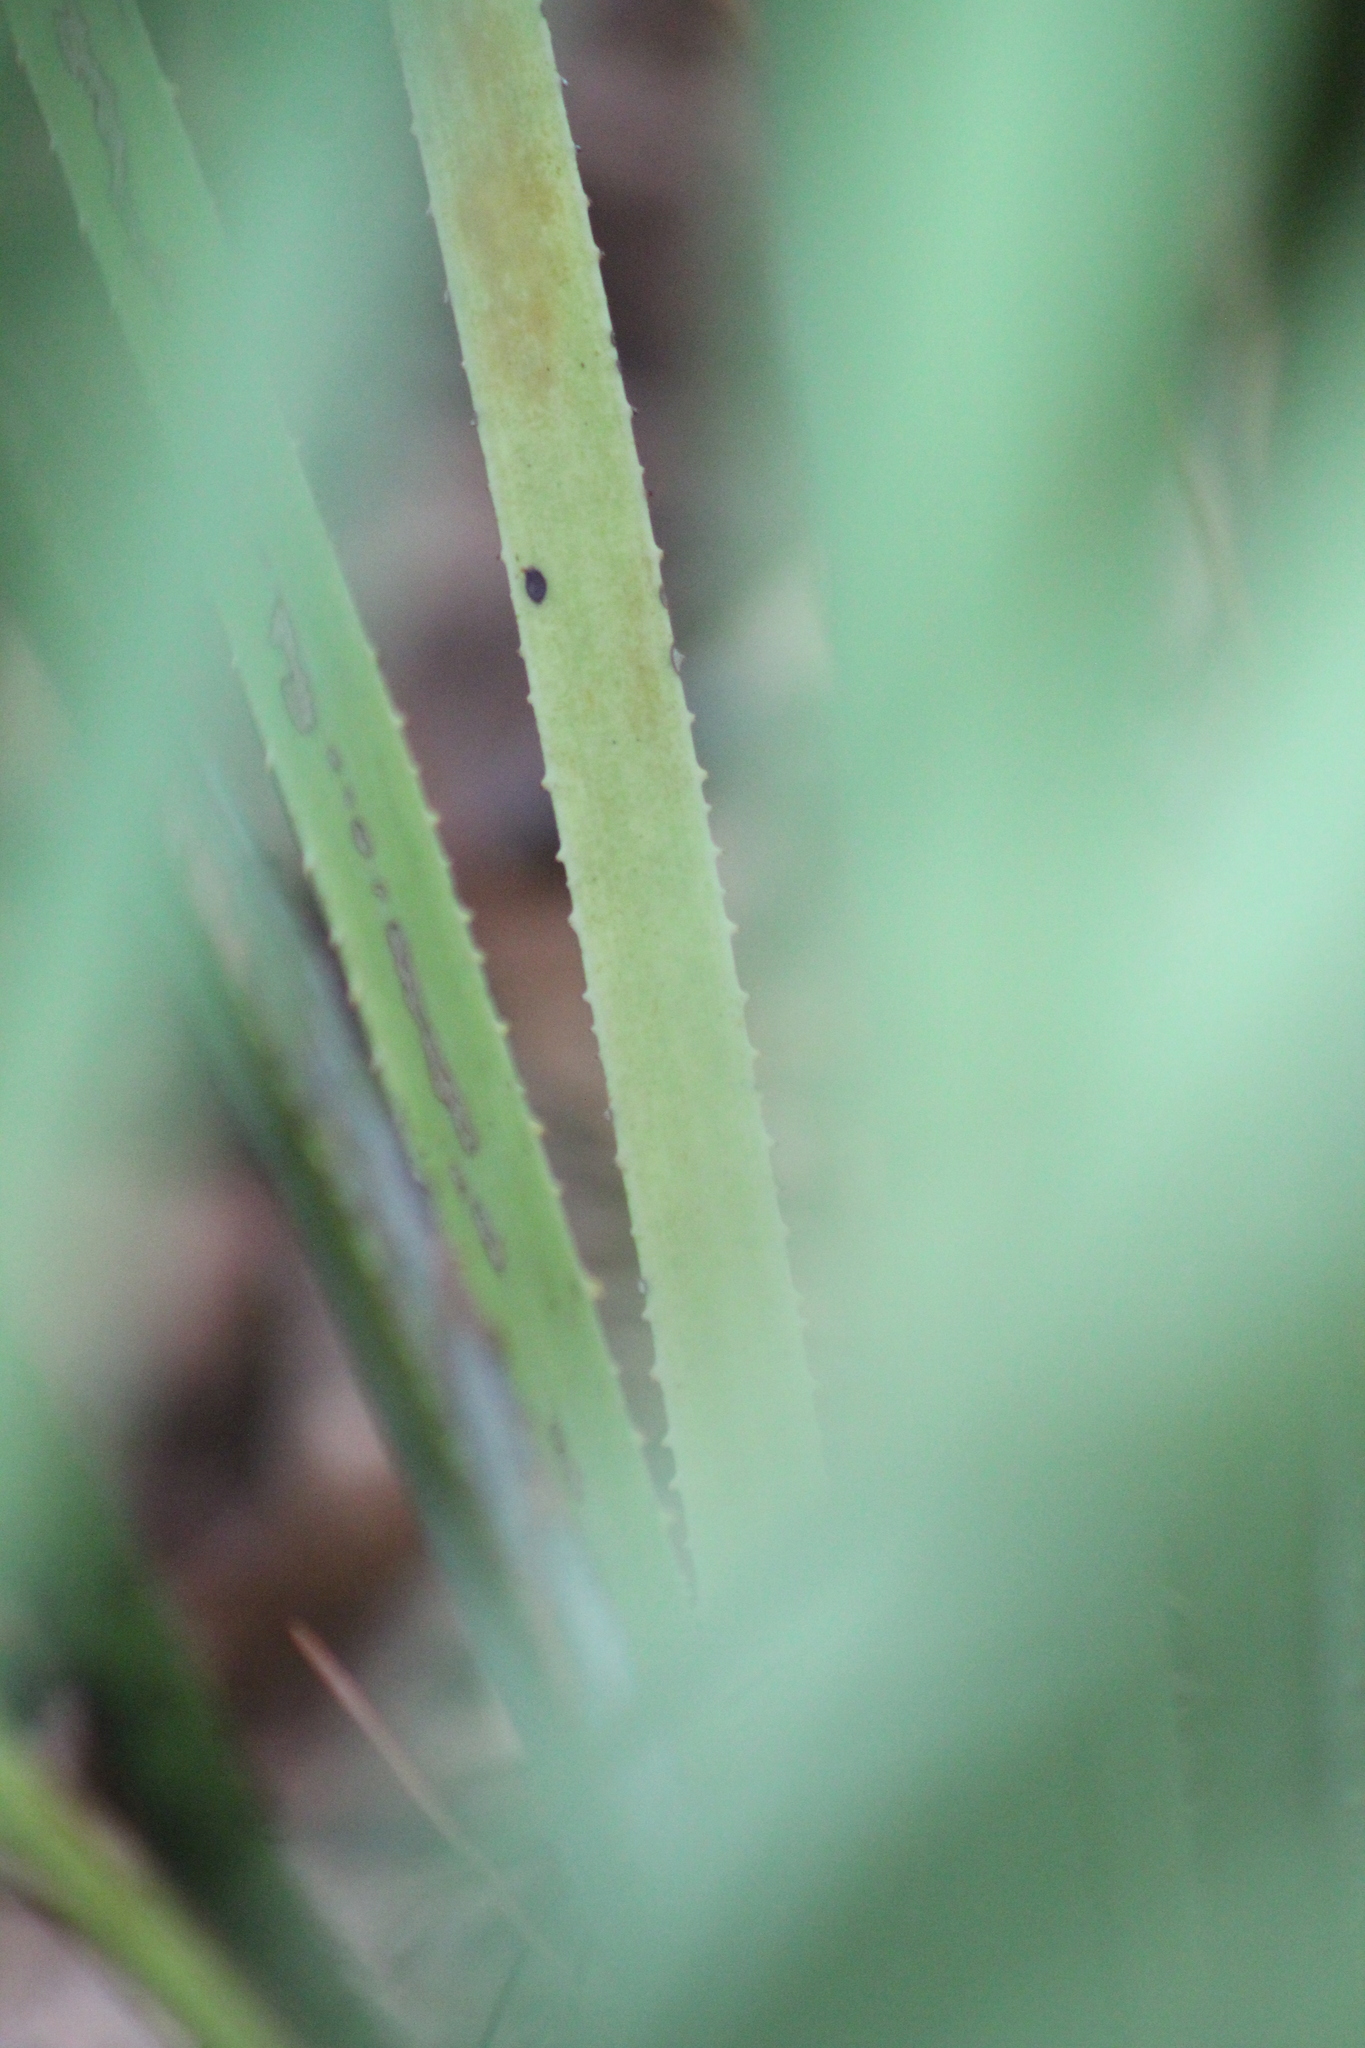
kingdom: Plantae
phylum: Tracheophyta
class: Liliopsida
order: Arecales
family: Arecaceae
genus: Serenoa
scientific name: Serenoa repens
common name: Saw-palmetto
